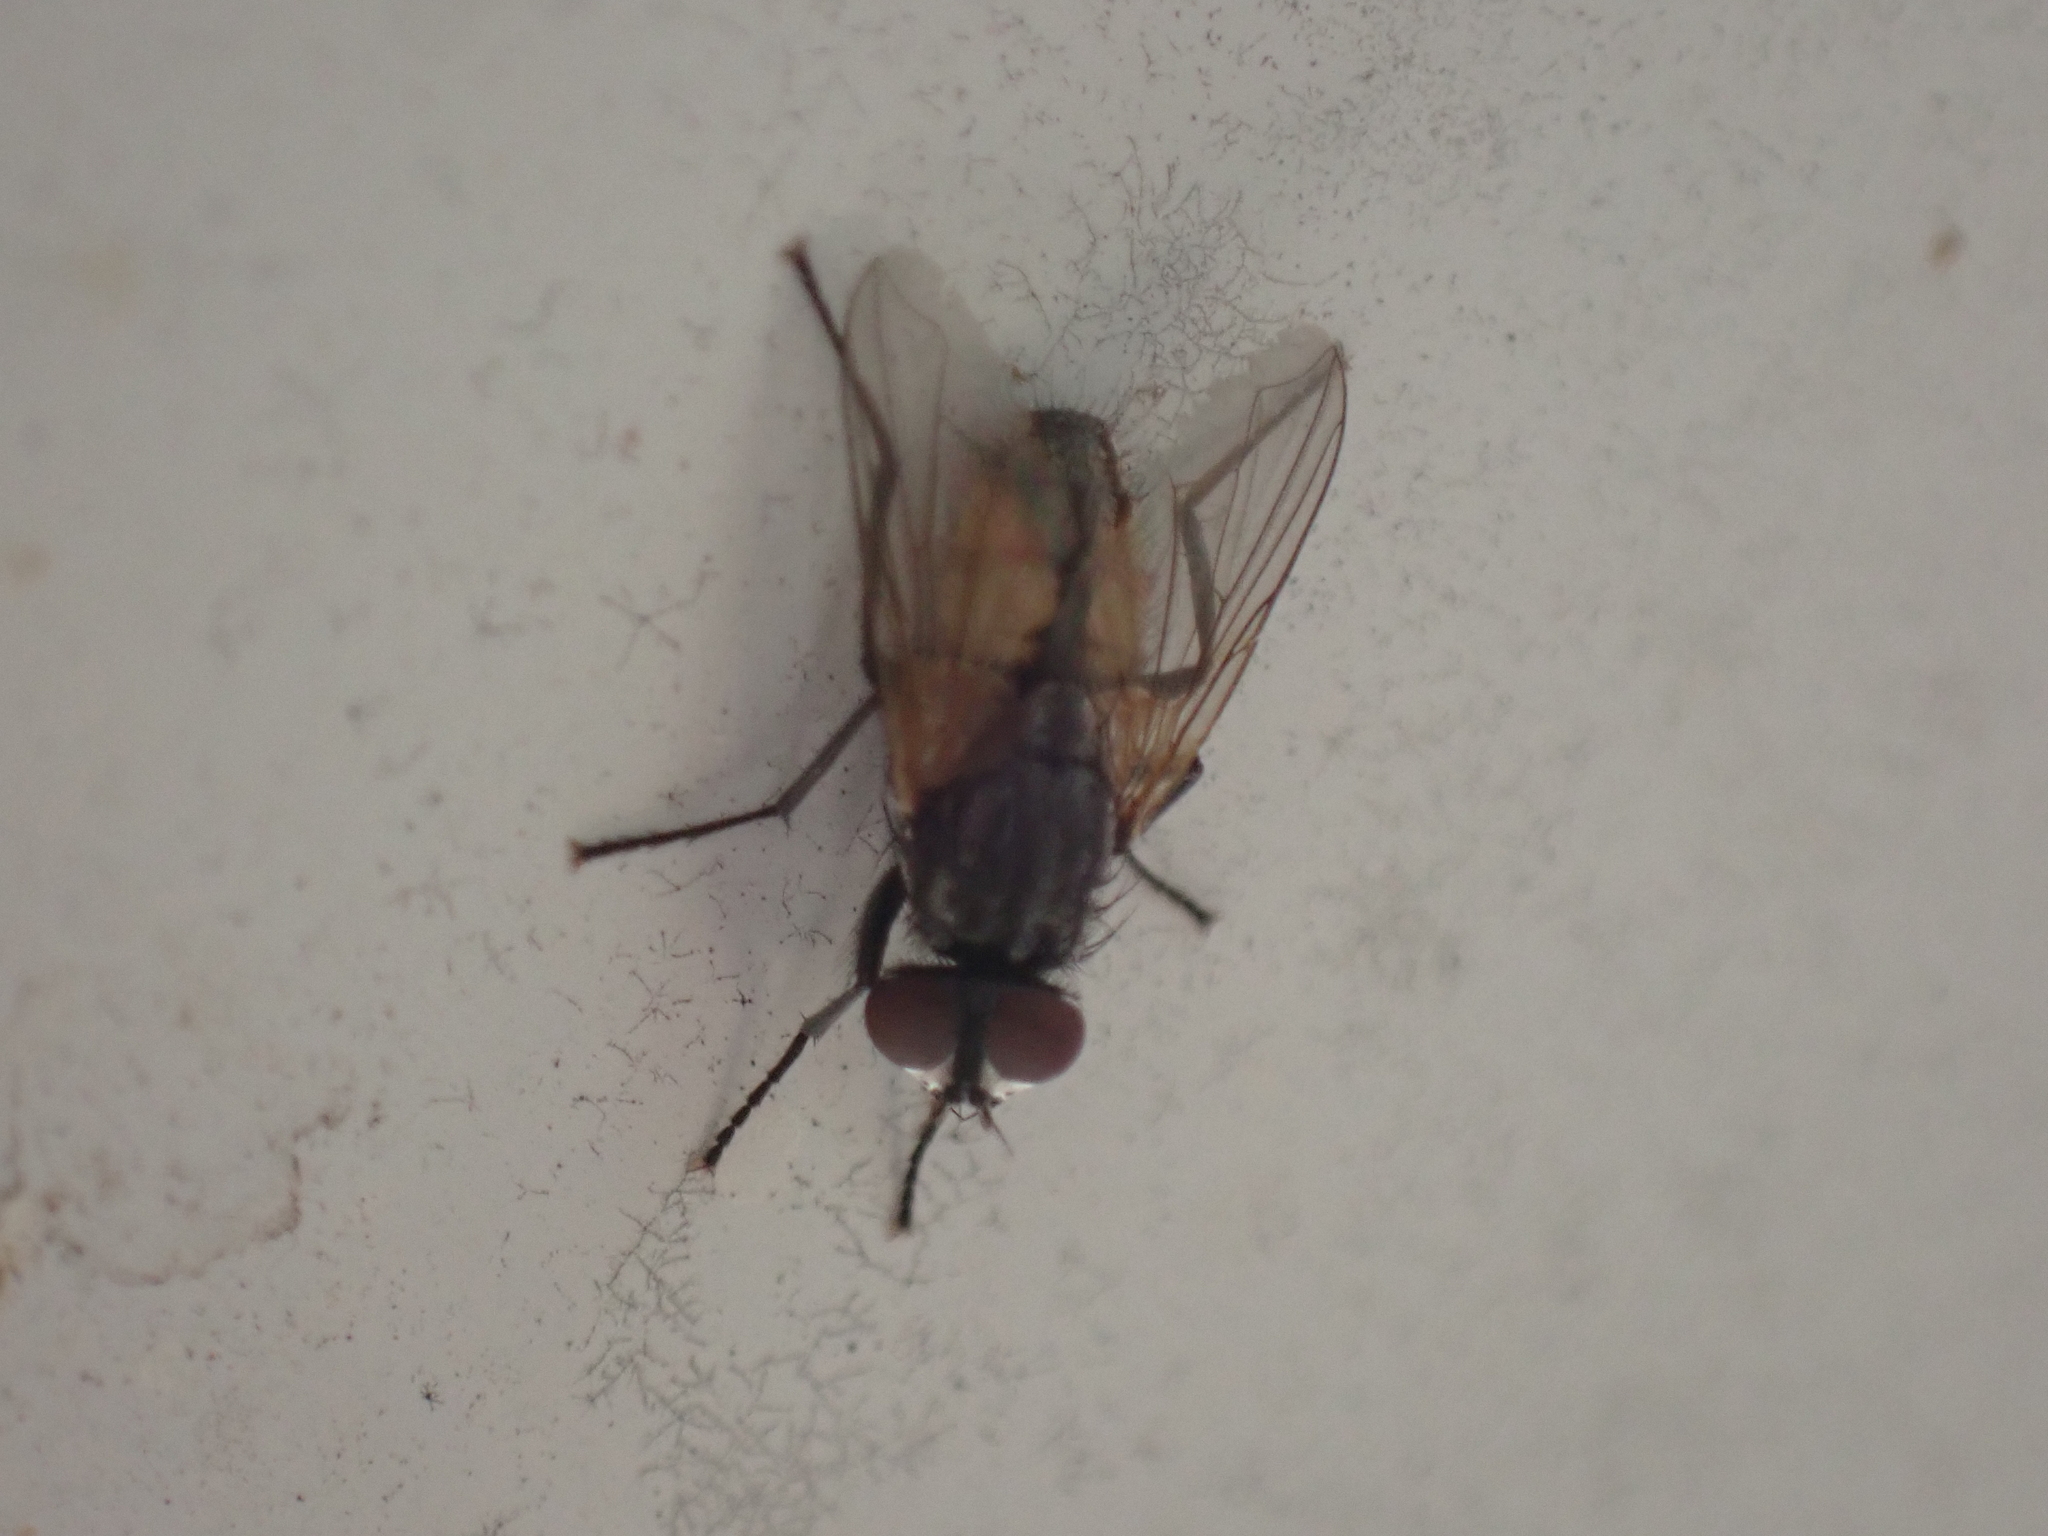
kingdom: Animalia
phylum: Arthropoda
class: Insecta
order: Diptera
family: Muscidae
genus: Musca
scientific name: Musca domestica
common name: House fly
